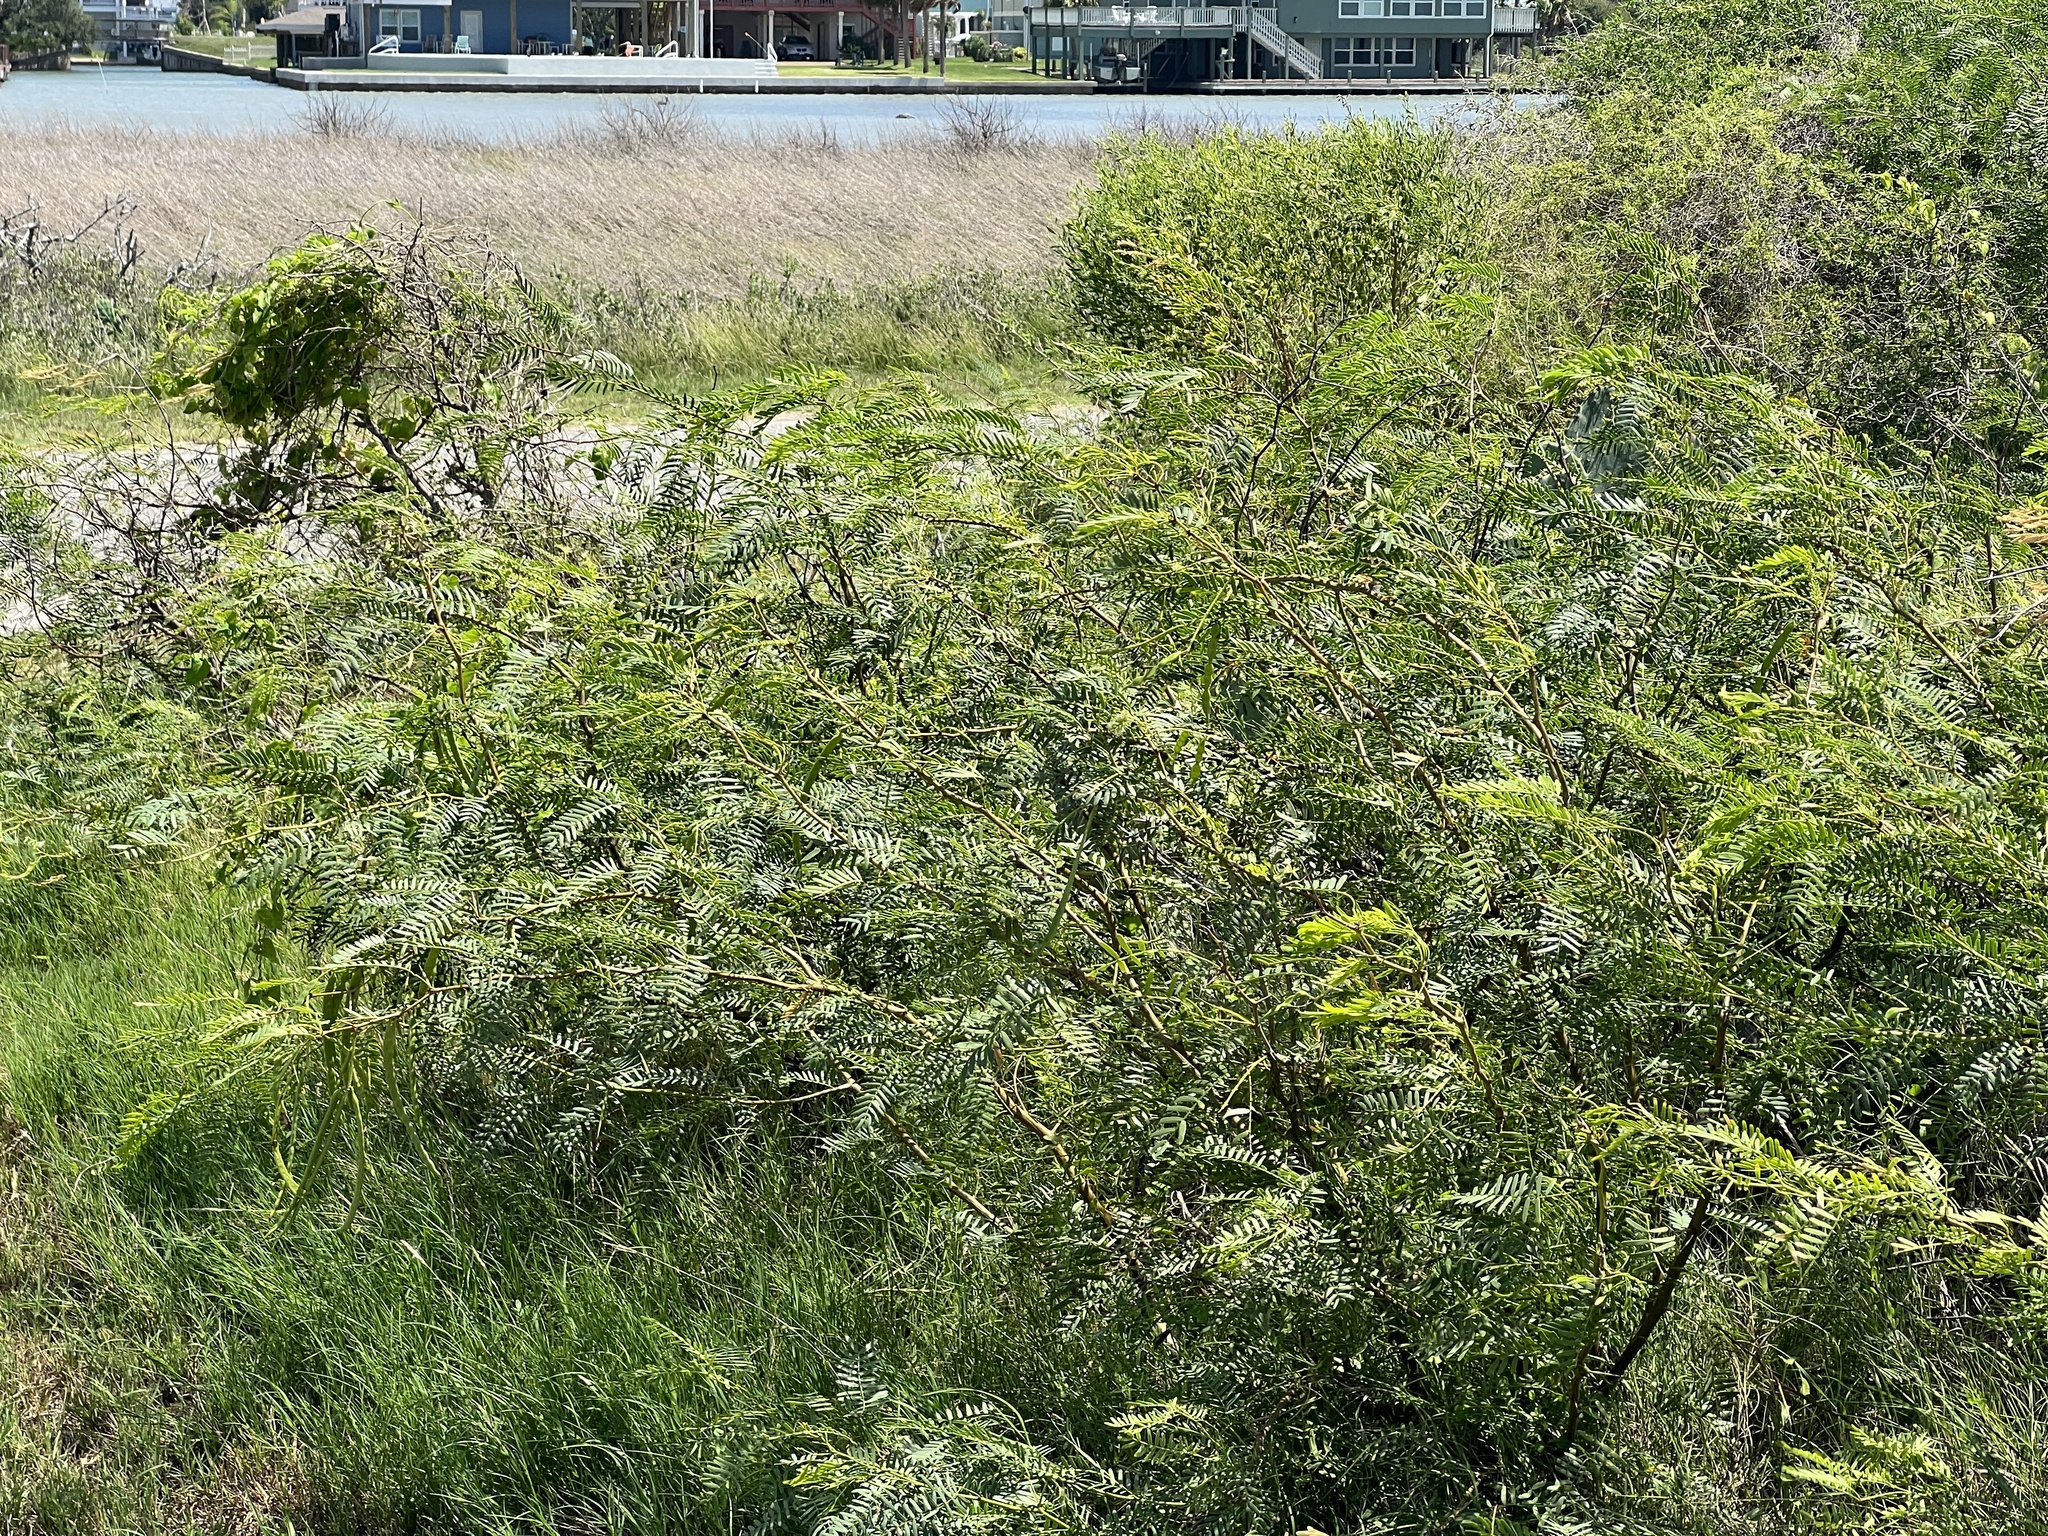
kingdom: Plantae
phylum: Tracheophyta
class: Magnoliopsida
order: Fabales
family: Fabaceae
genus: Prosopis
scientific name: Prosopis glandulosa
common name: Honey mesquite
